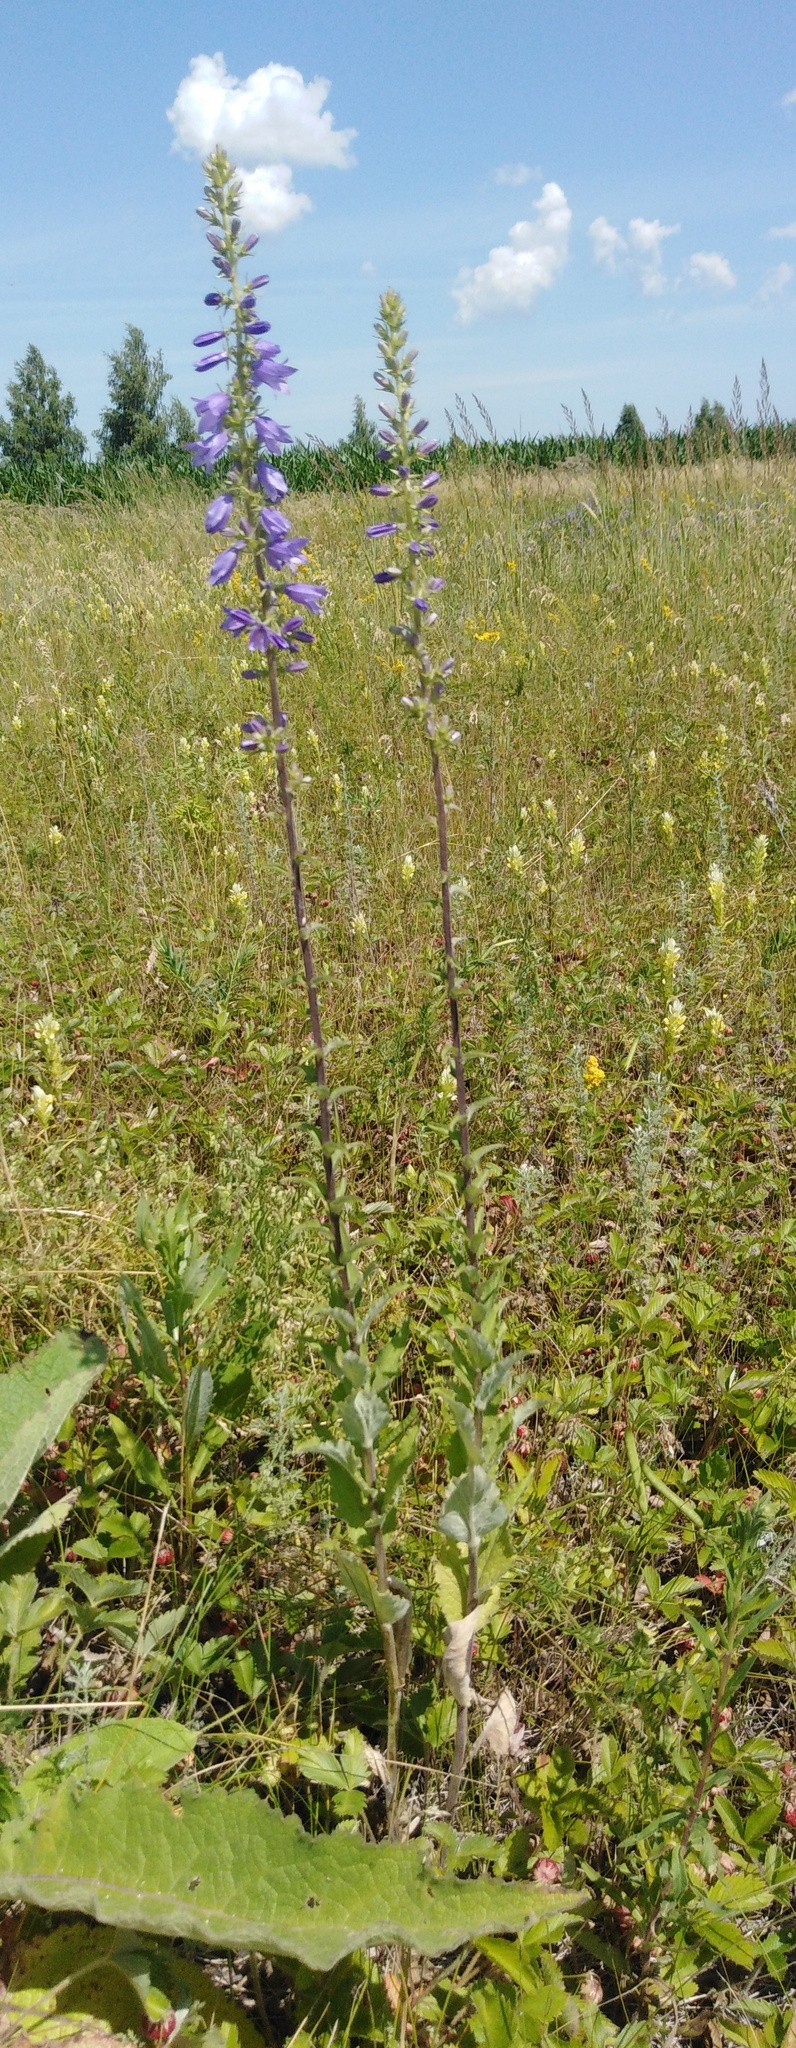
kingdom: Plantae
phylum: Tracheophyta
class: Magnoliopsida
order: Asterales
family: Campanulaceae
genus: Campanula
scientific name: Campanula bononiensis
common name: Pale bellflower
